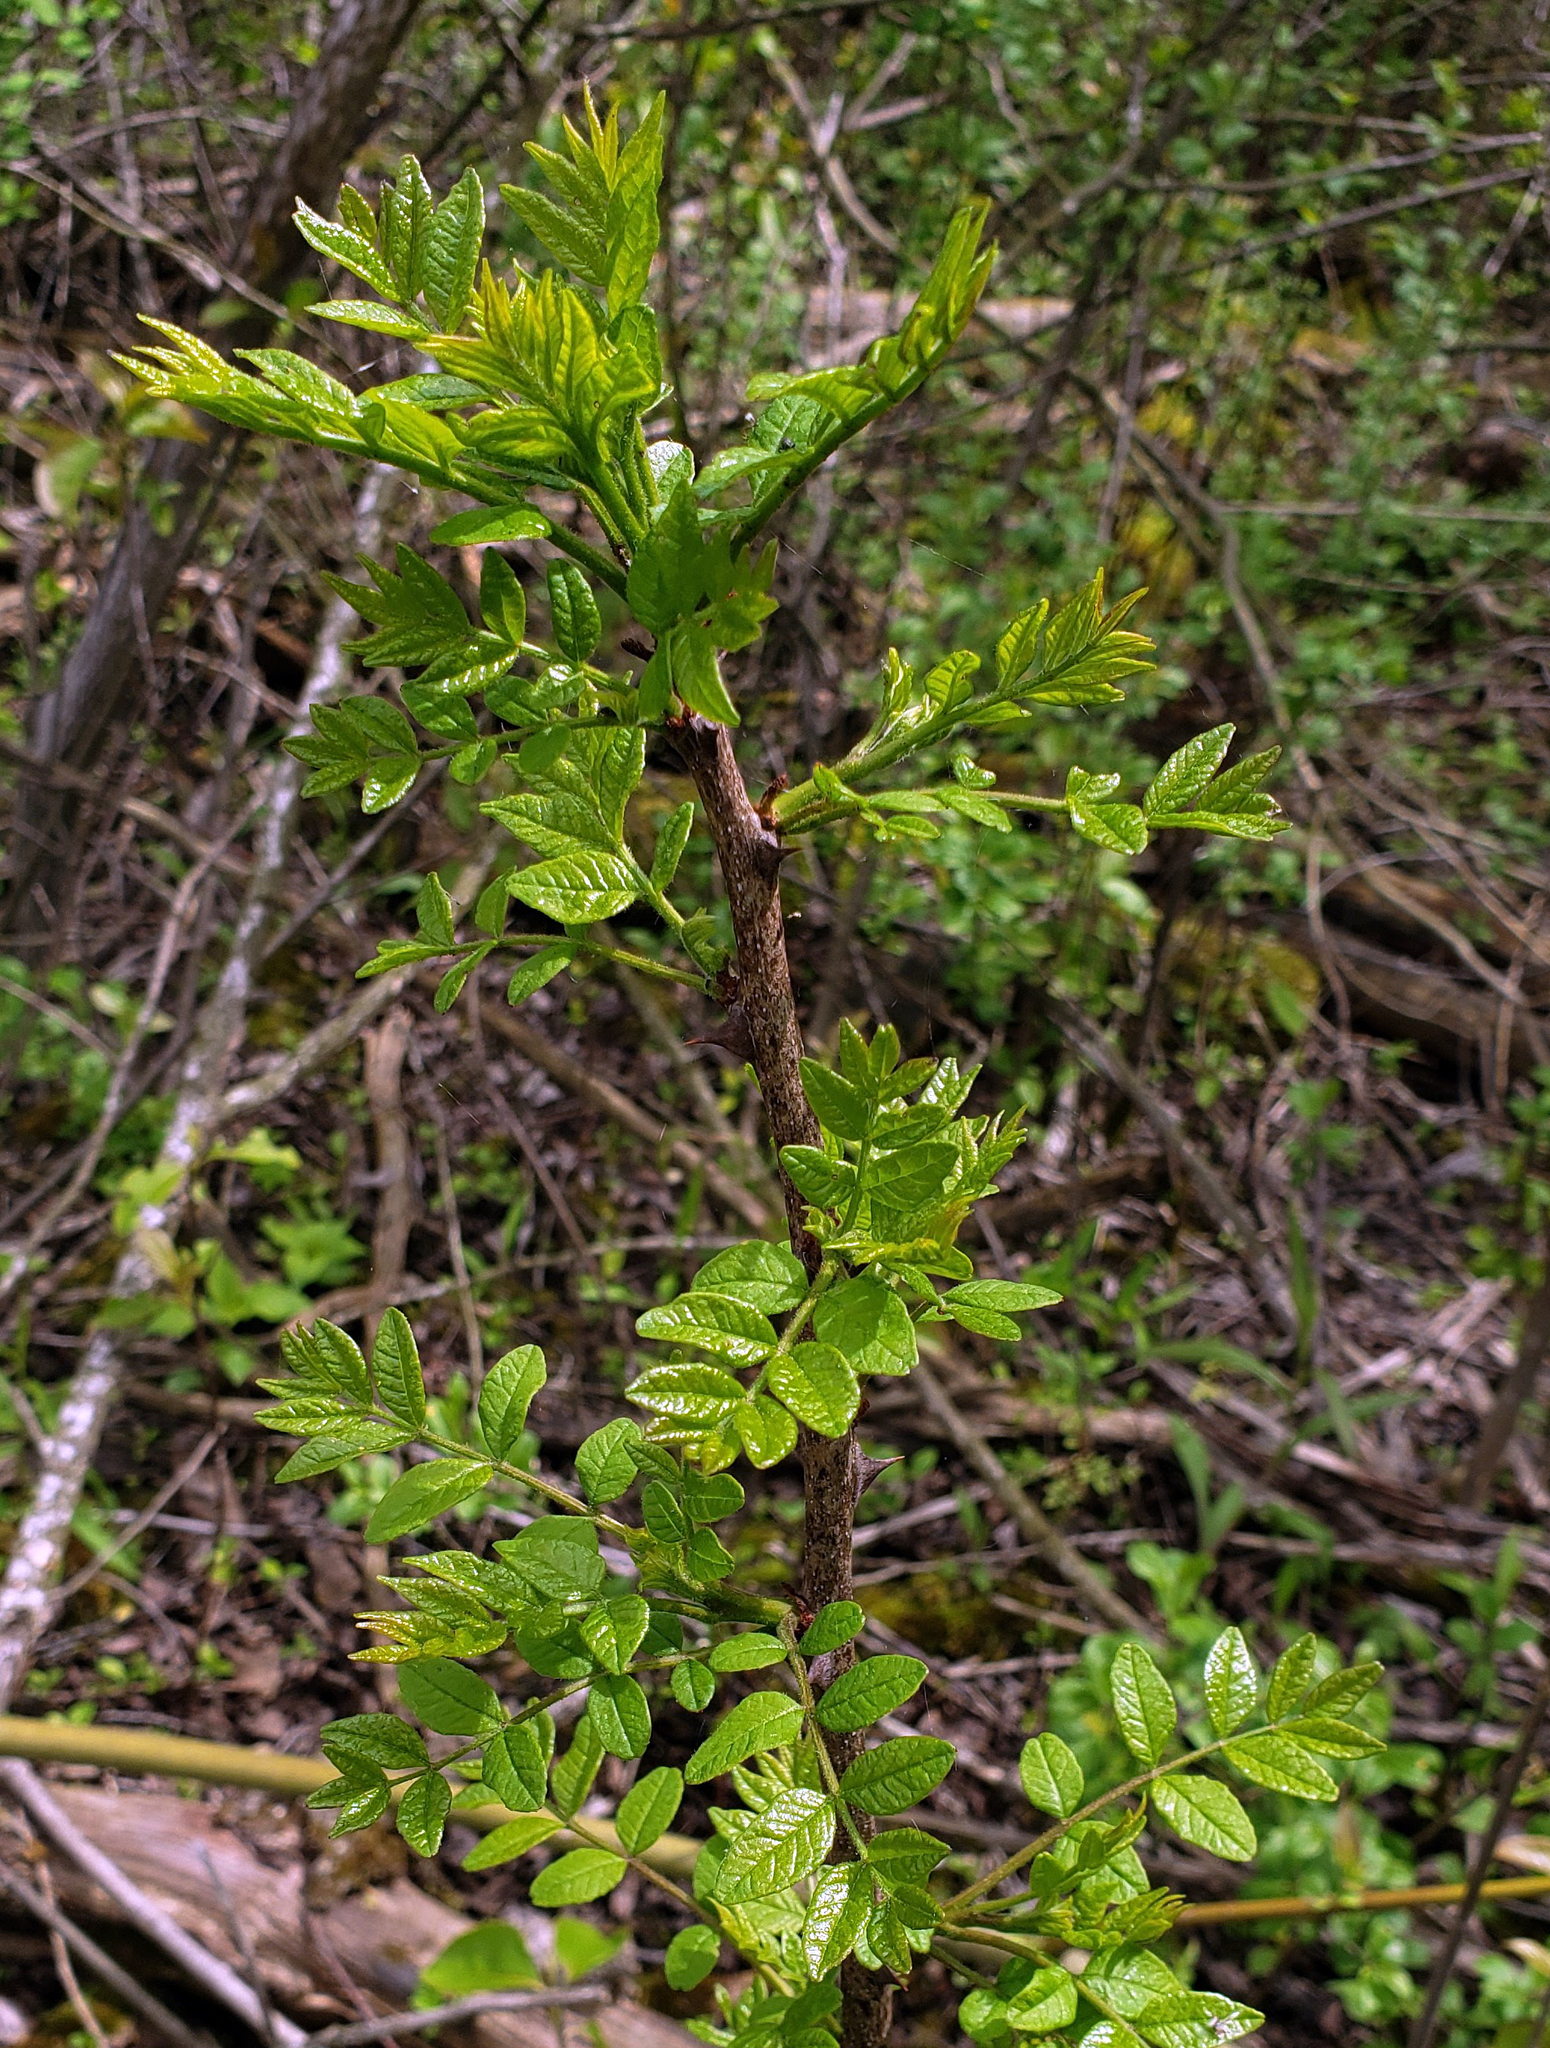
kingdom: Plantae
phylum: Tracheophyta
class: Magnoliopsida
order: Sapindales
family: Rutaceae
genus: Zanthoxylum
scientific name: Zanthoxylum americanum
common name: Northern prickly-ash
